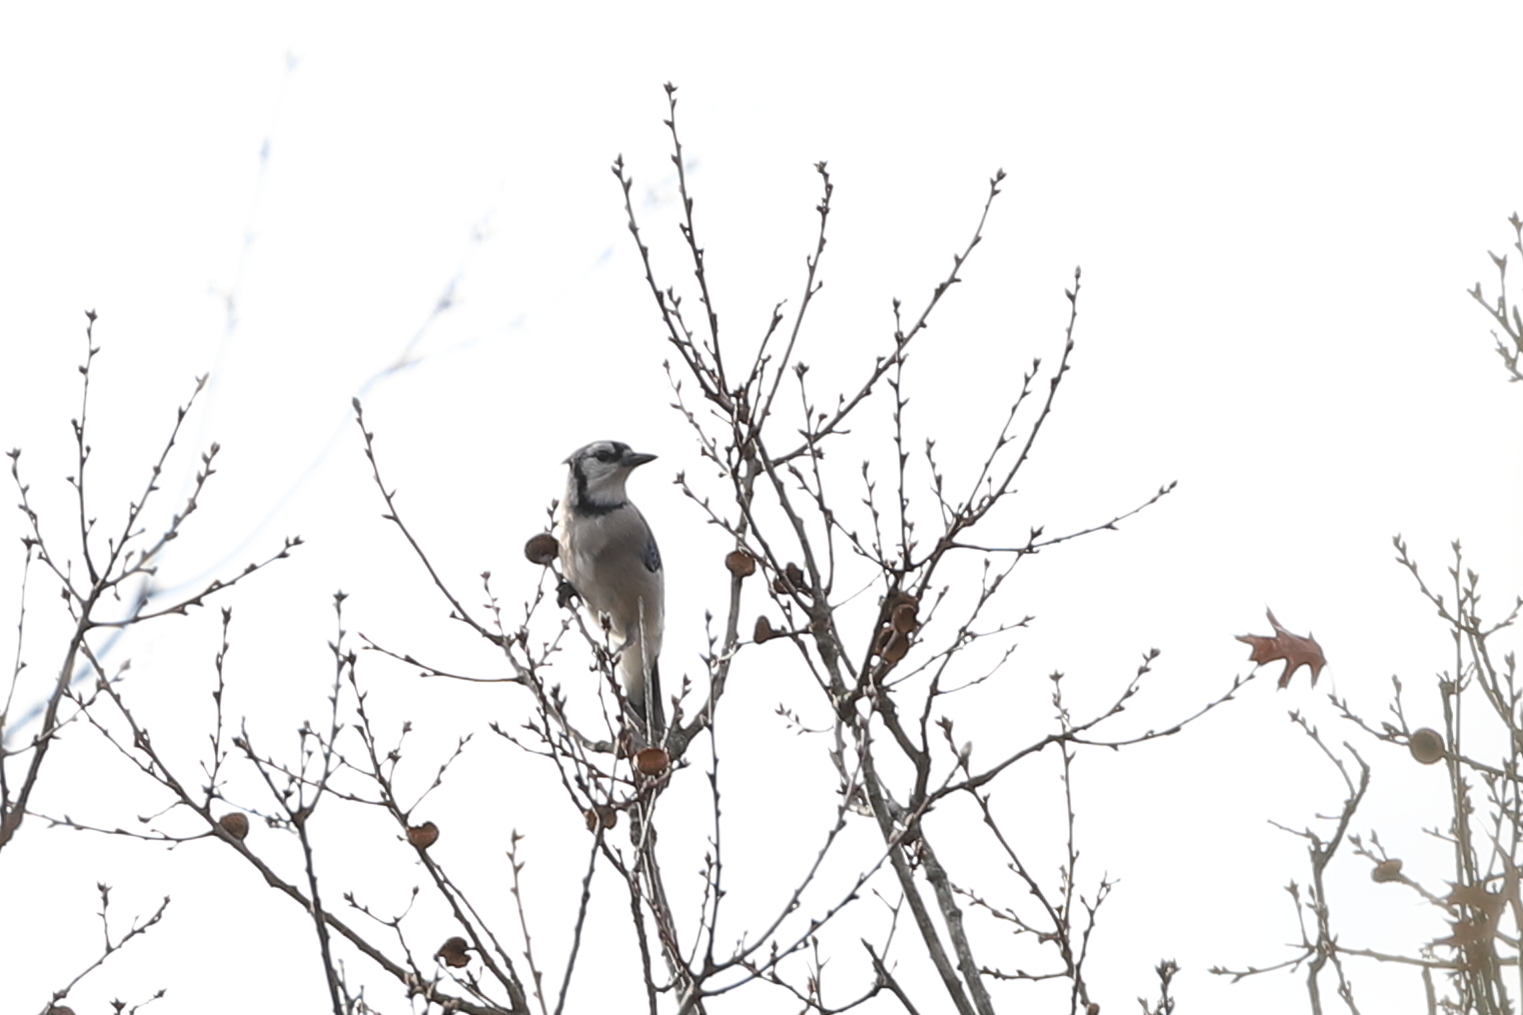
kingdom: Animalia
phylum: Chordata
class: Aves
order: Passeriformes
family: Corvidae
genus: Cyanocitta
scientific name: Cyanocitta cristata
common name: Blue jay
